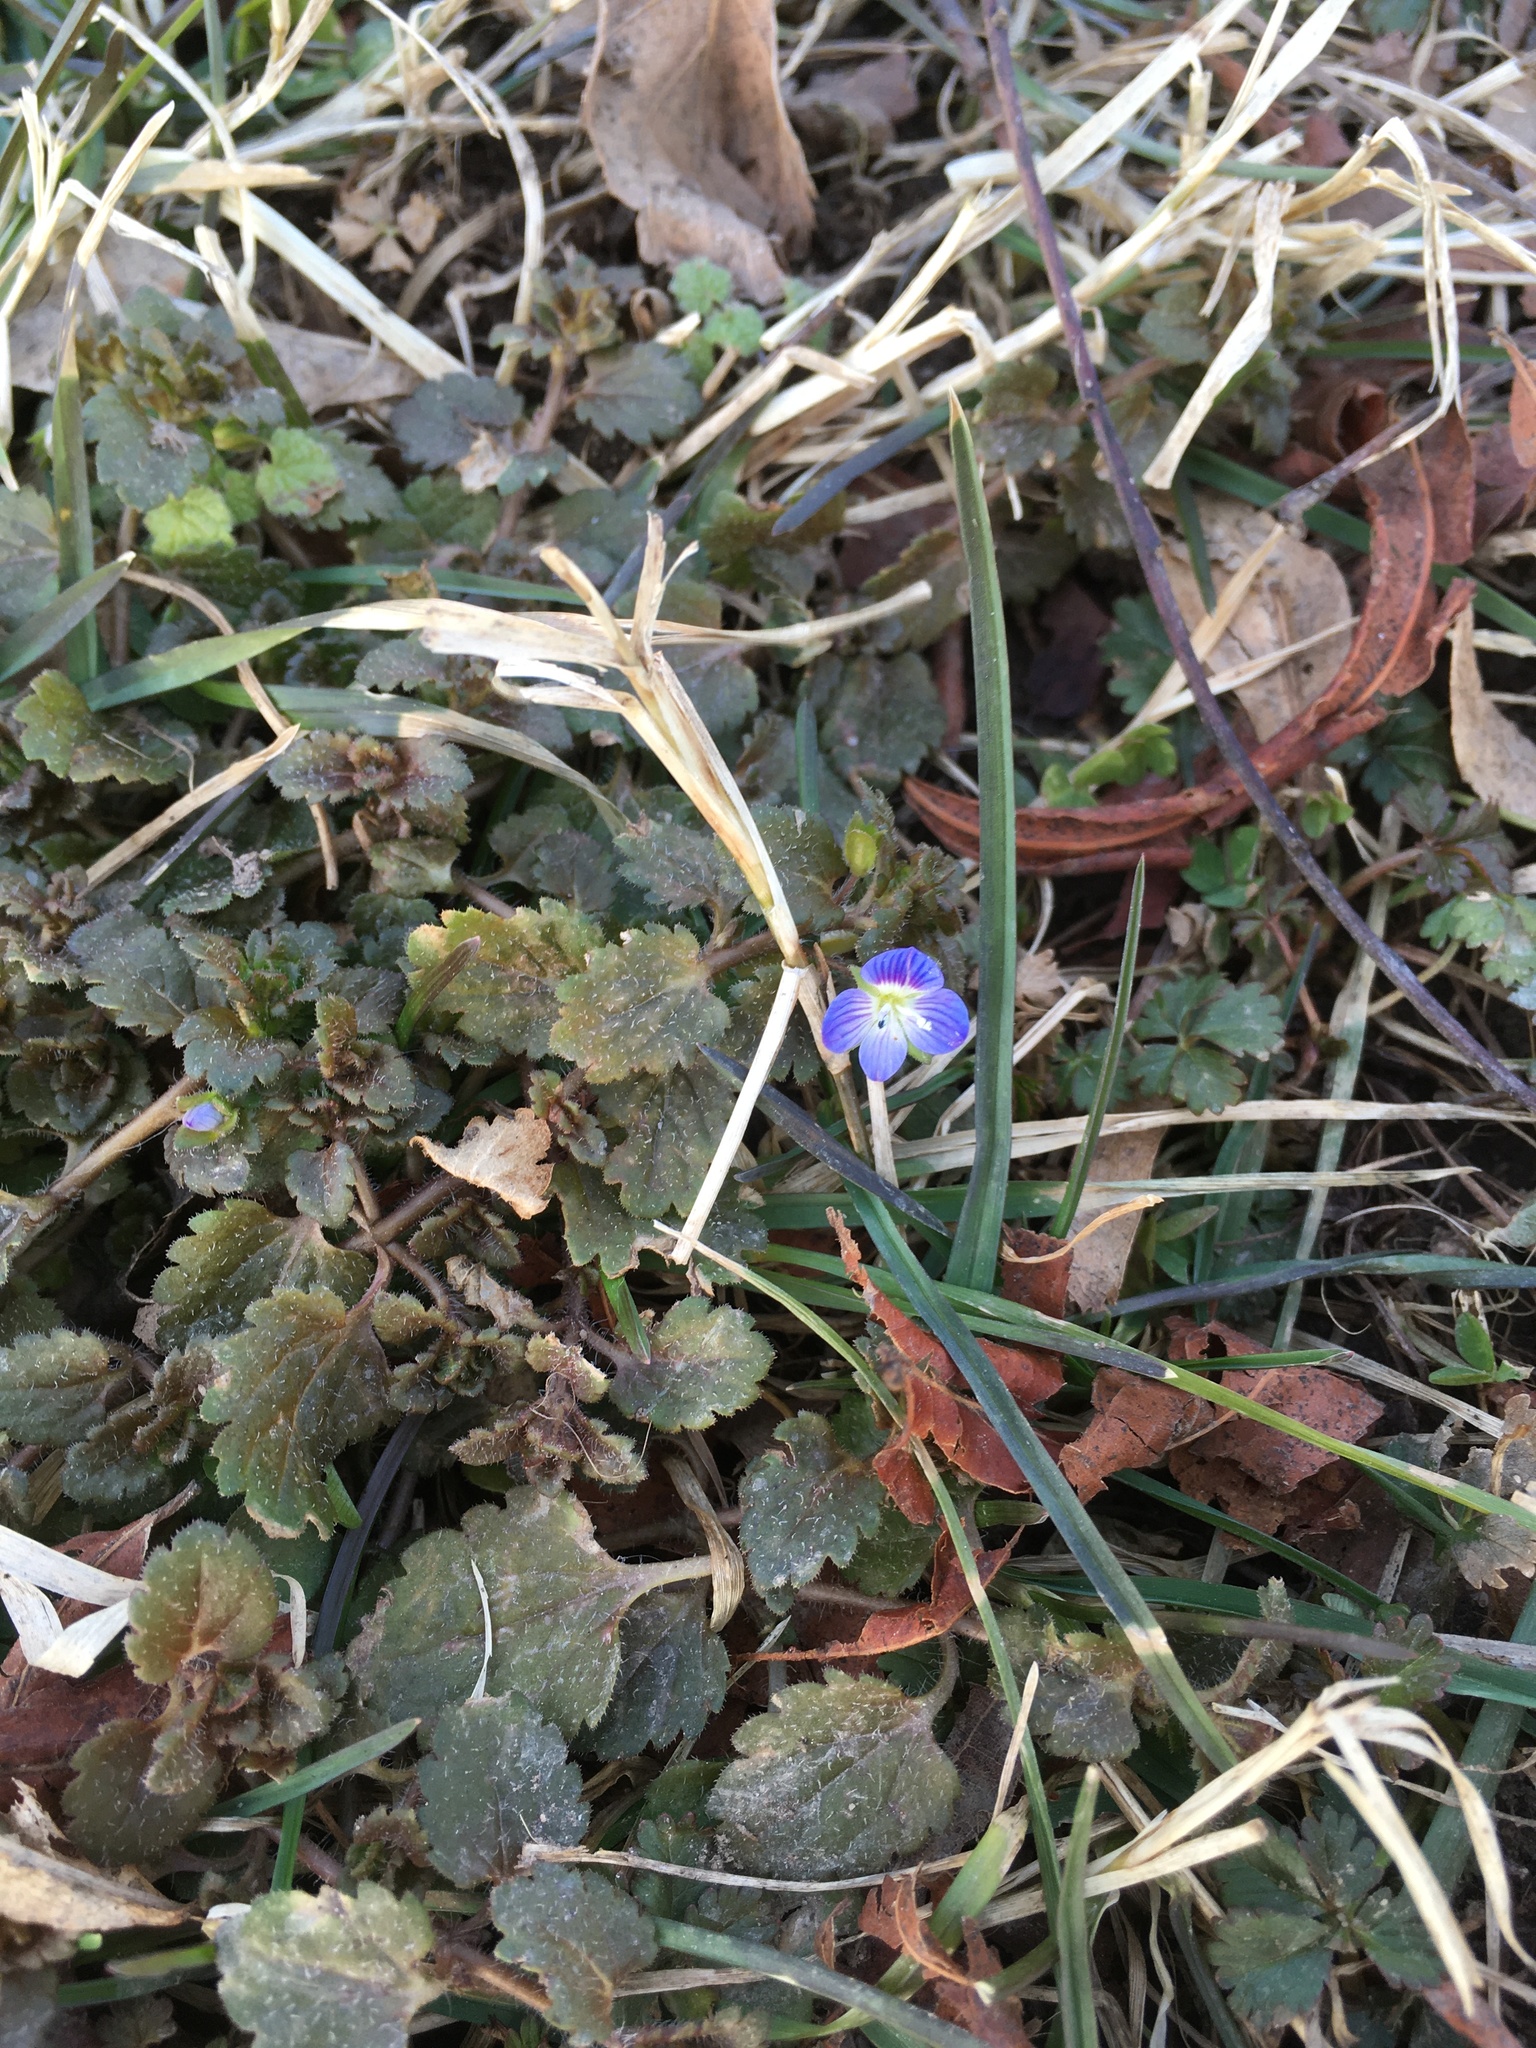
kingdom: Plantae
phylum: Tracheophyta
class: Magnoliopsida
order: Lamiales
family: Plantaginaceae
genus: Veronica
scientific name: Veronica persica
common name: Common field-speedwell
